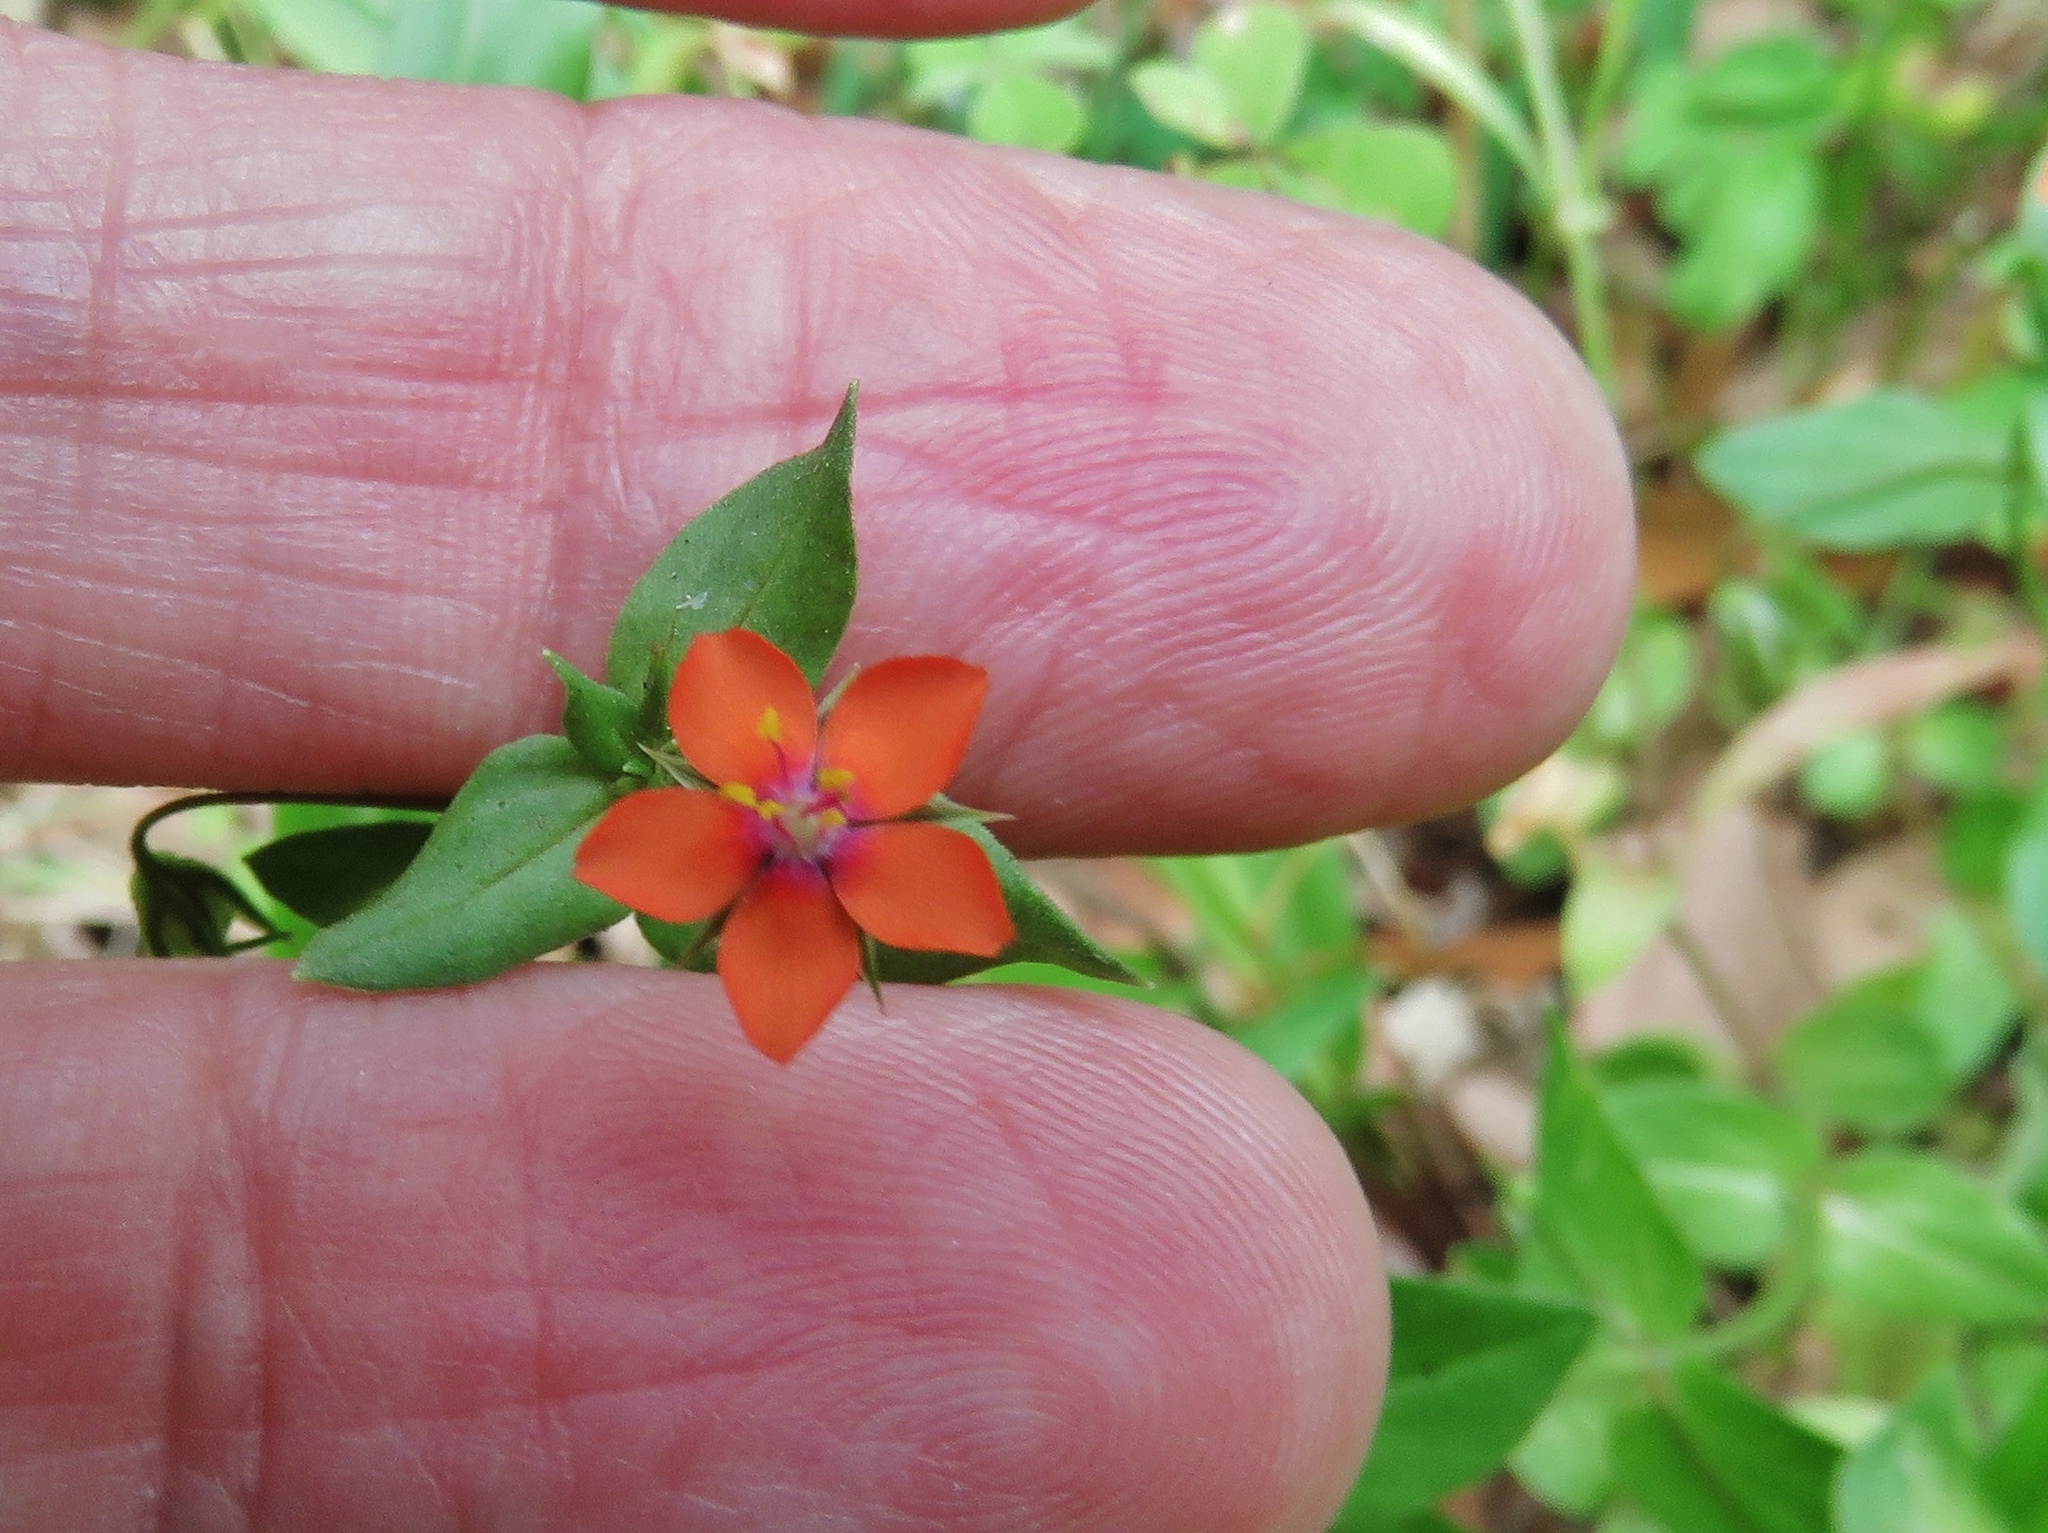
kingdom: Plantae
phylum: Tracheophyta
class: Magnoliopsida
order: Ericales
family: Primulaceae
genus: Lysimachia
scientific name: Lysimachia arvensis
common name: Scarlet pimpernel
